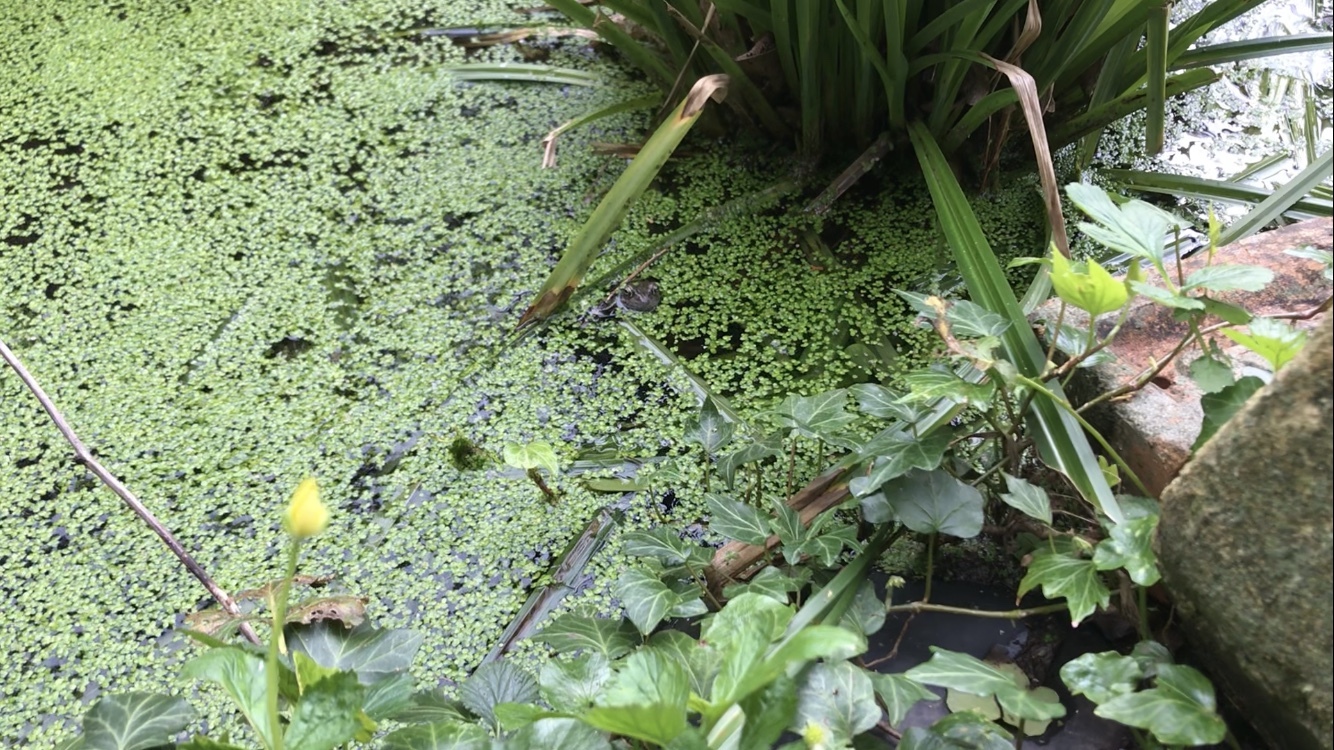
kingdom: Animalia
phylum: Chordata
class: Amphibia
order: Anura
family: Ranidae
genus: Rana
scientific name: Rana temporaria
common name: Common frog
